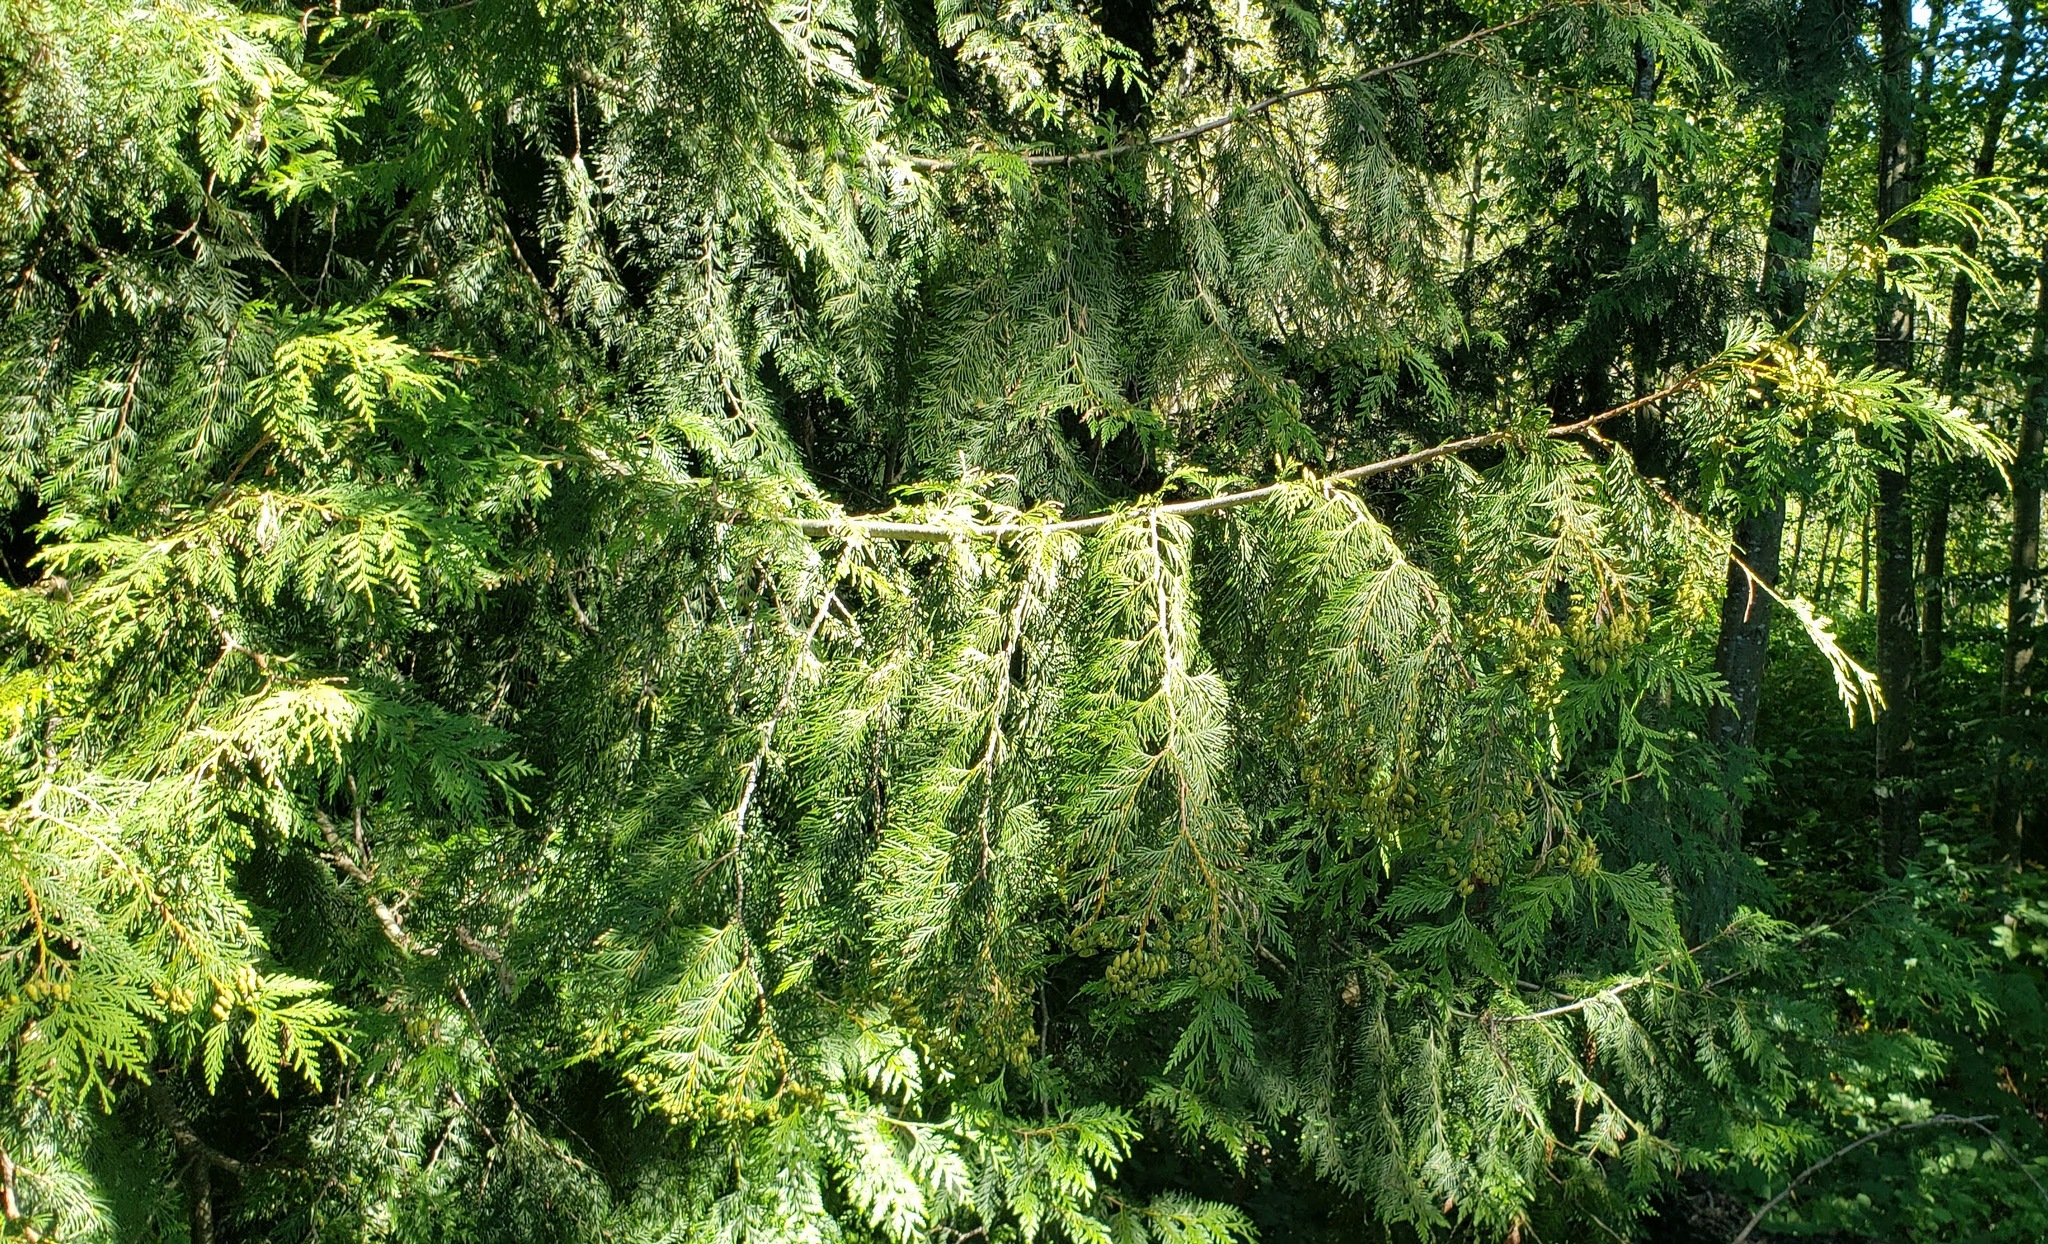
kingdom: Plantae
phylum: Tracheophyta
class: Pinopsida
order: Pinales
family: Cupressaceae
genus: Thuja
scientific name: Thuja plicata
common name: Western red-cedar
